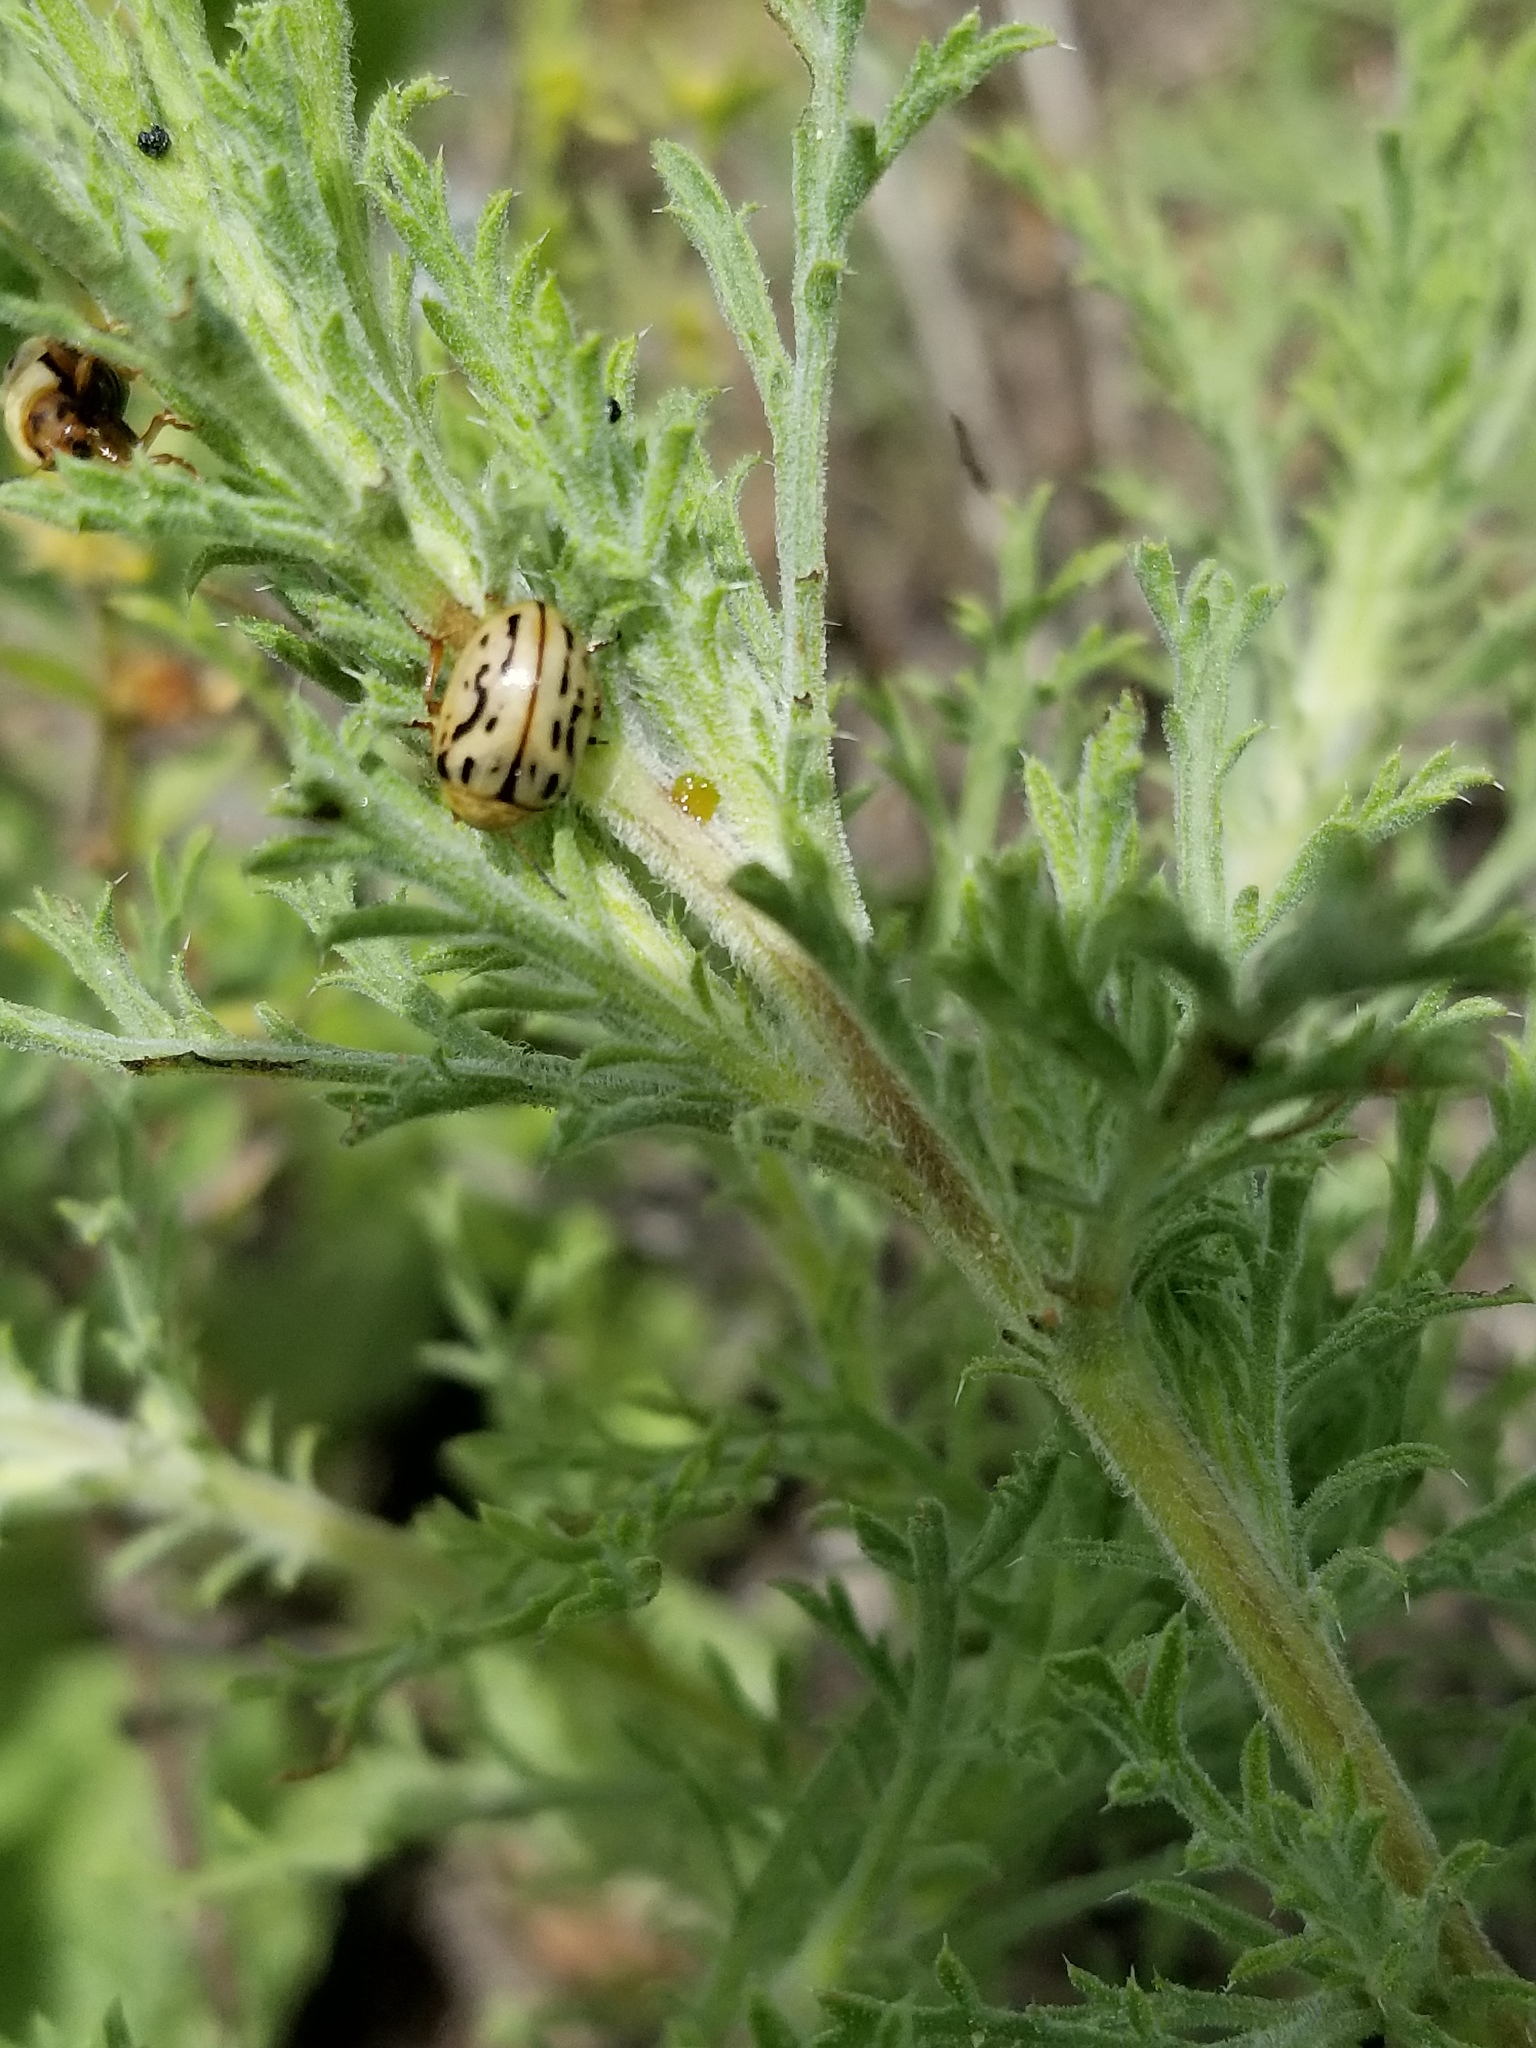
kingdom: Animalia
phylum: Arthropoda
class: Insecta
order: Coleoptera
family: Chrysomelidae
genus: Calligrapha
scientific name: Calligrapha
